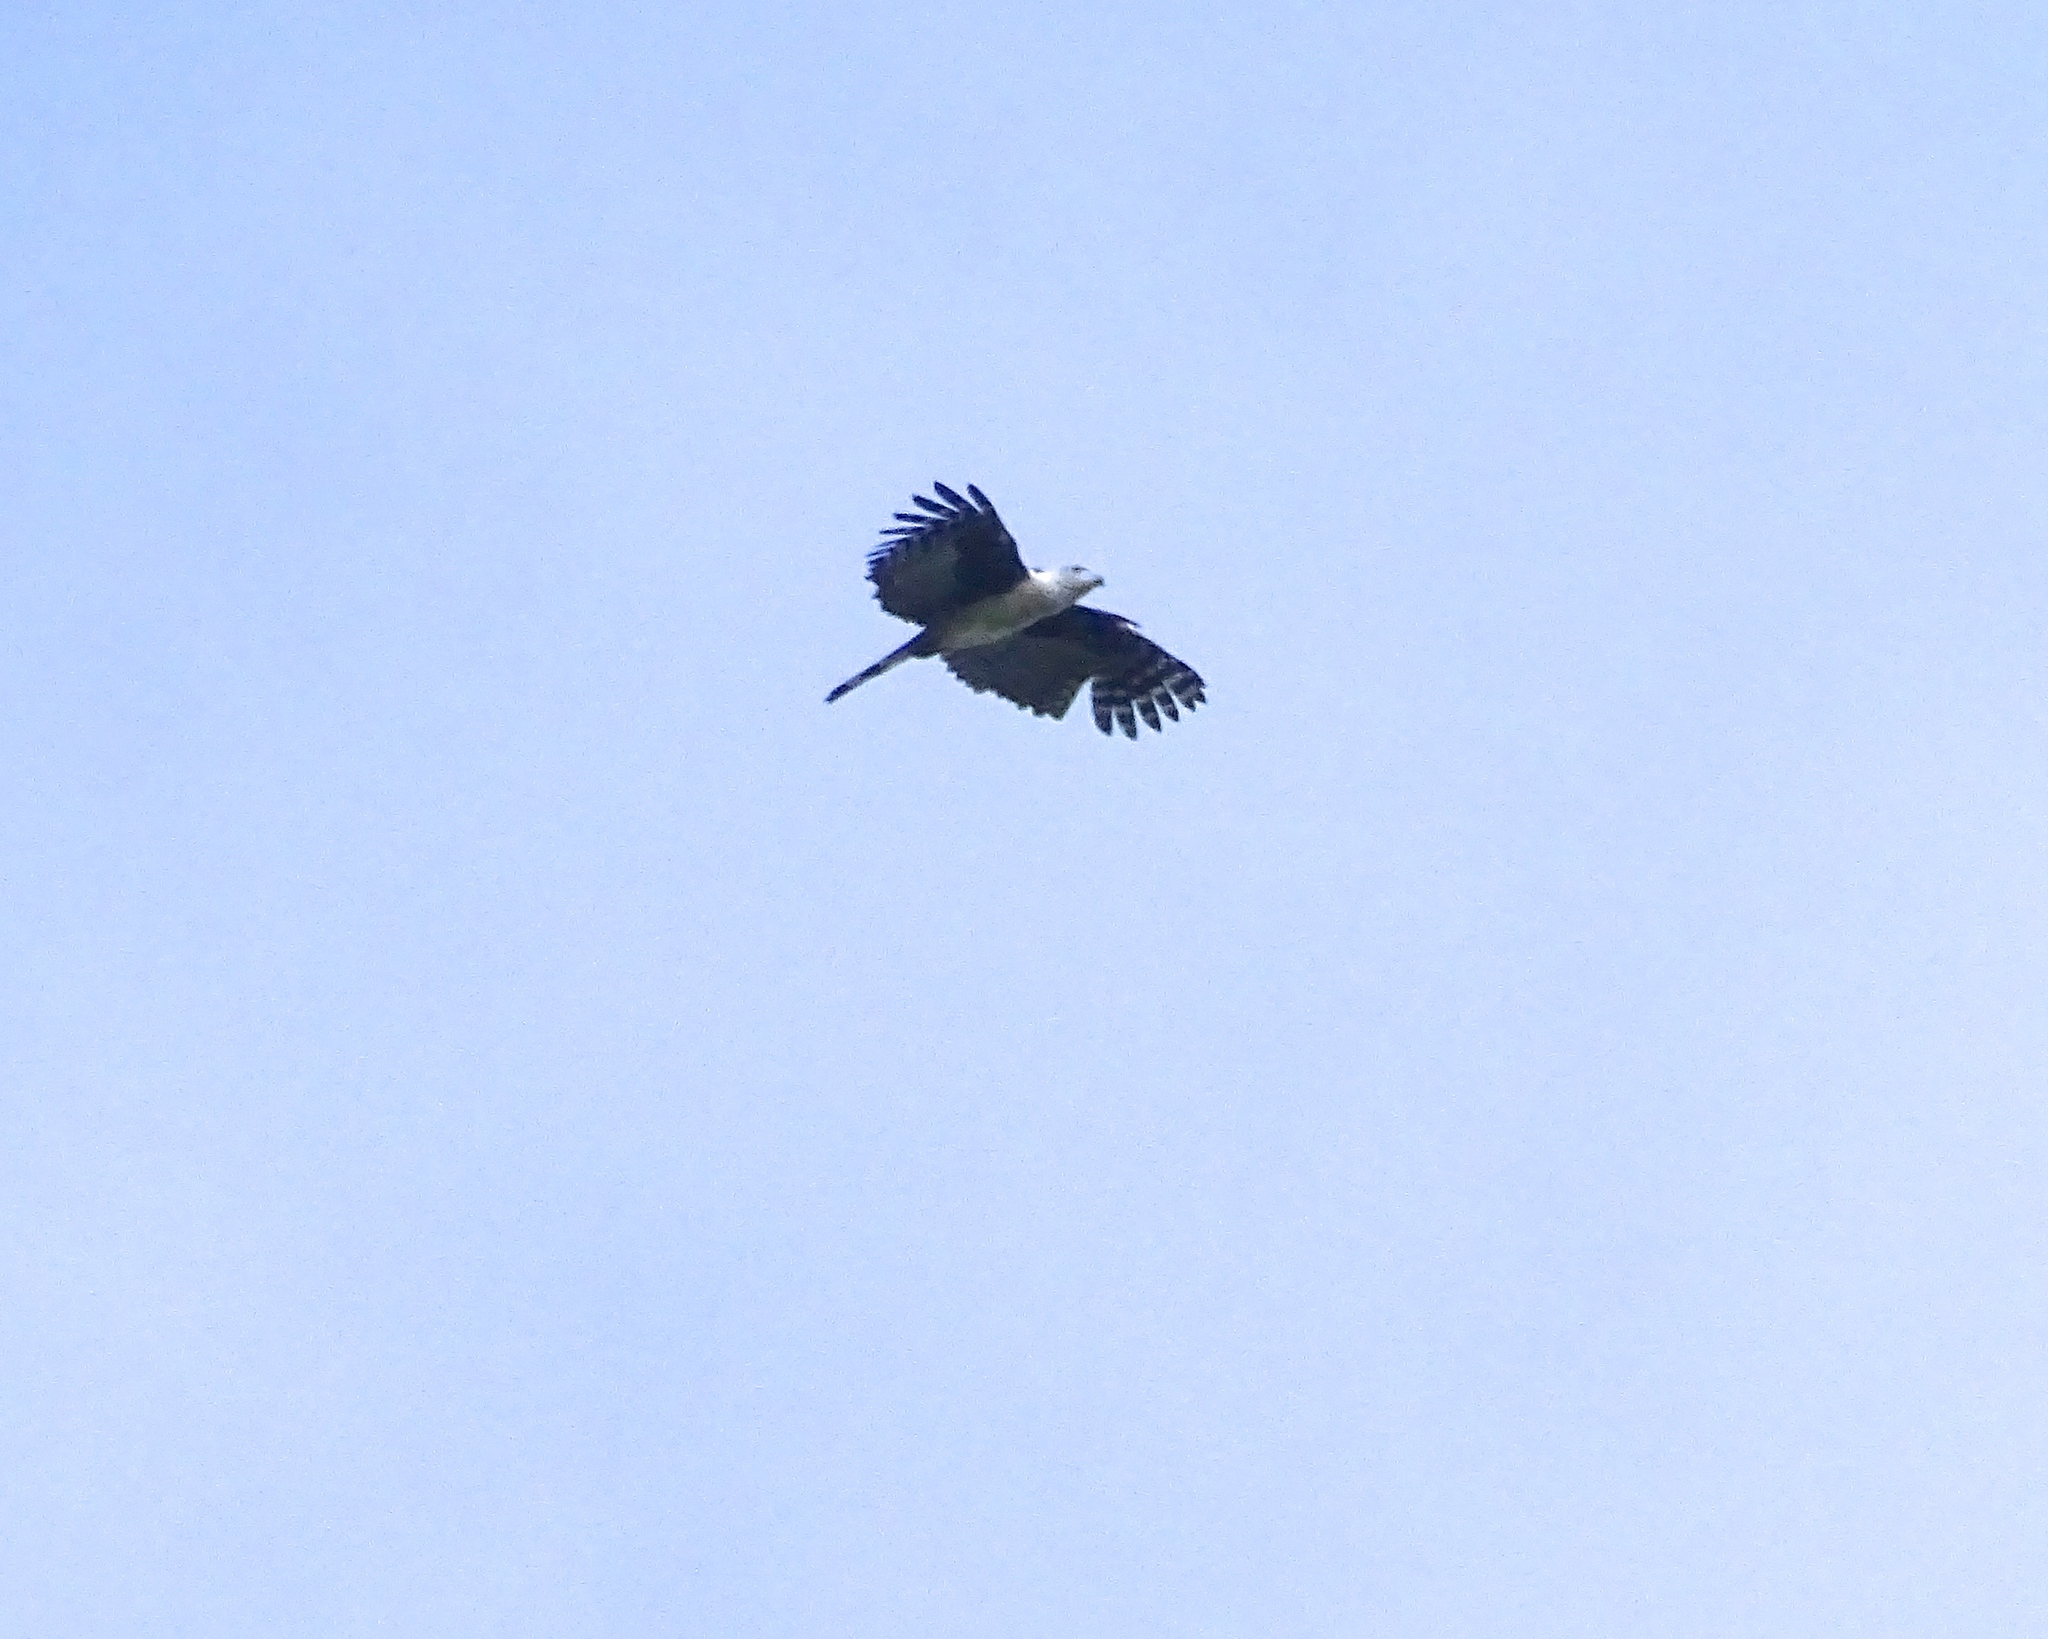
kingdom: Animalia
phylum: Chordata
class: Aves
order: Accipitriformes
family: Accipitridae
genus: Leptodon
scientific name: Leptodon cayanensis
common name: Gray-headed kite
